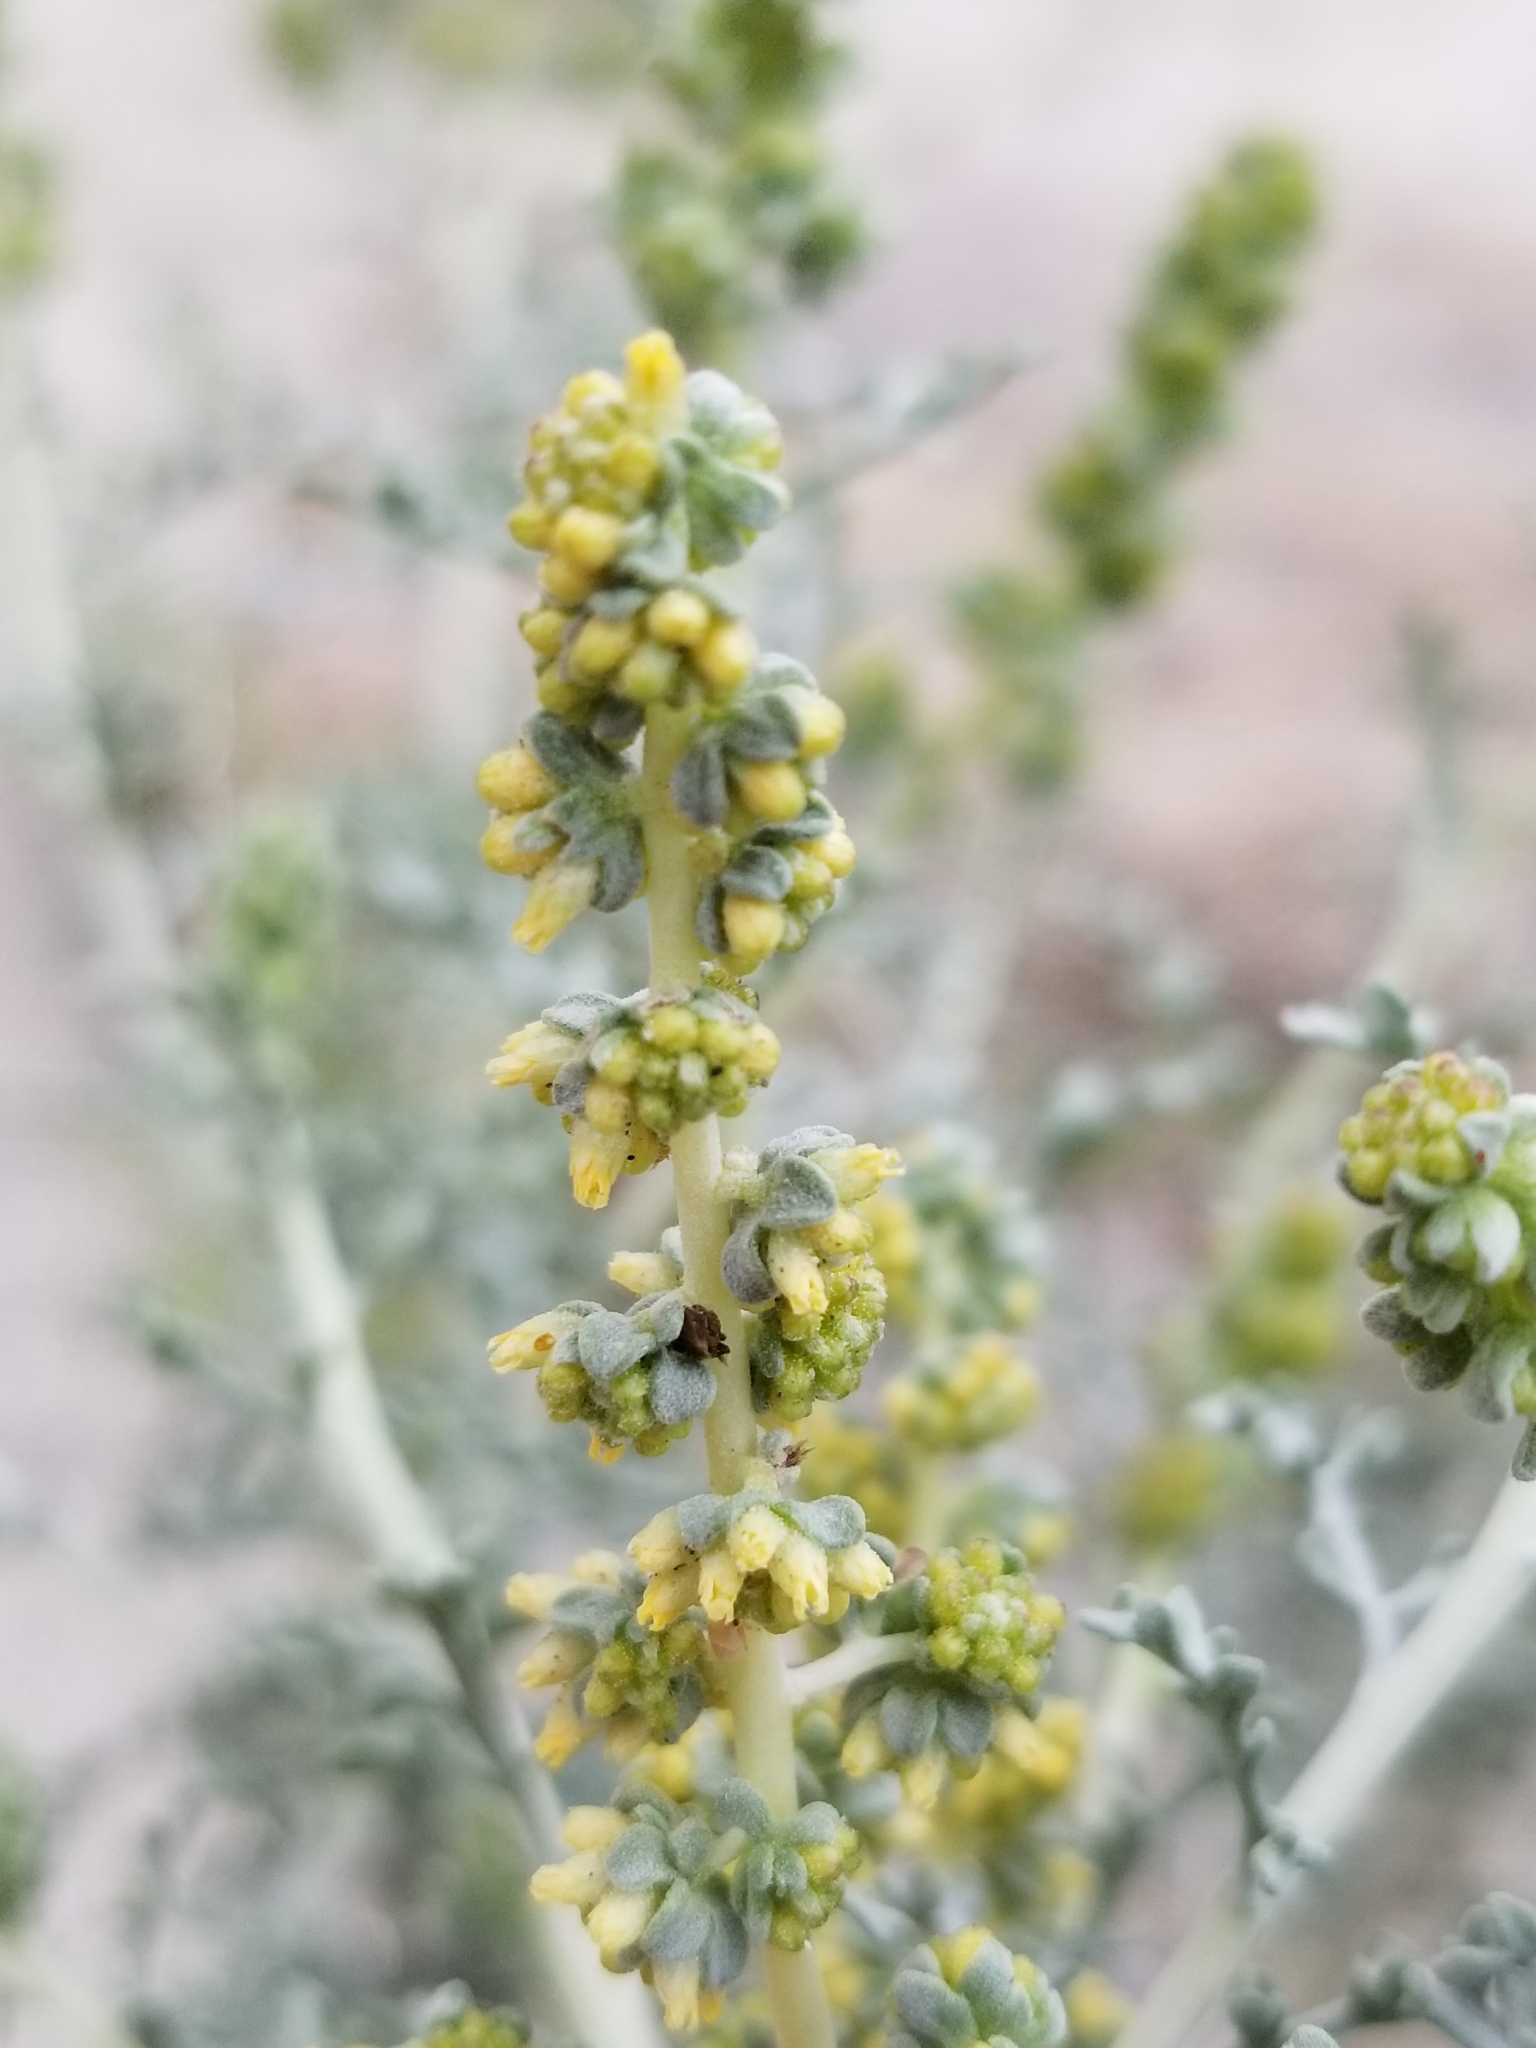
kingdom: Plantae
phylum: Tracheophyta
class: Magnoliopsida
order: Asterales
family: Asteraceae
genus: Ambrosia
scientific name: Ambrosia dumosa
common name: Bur-sage
